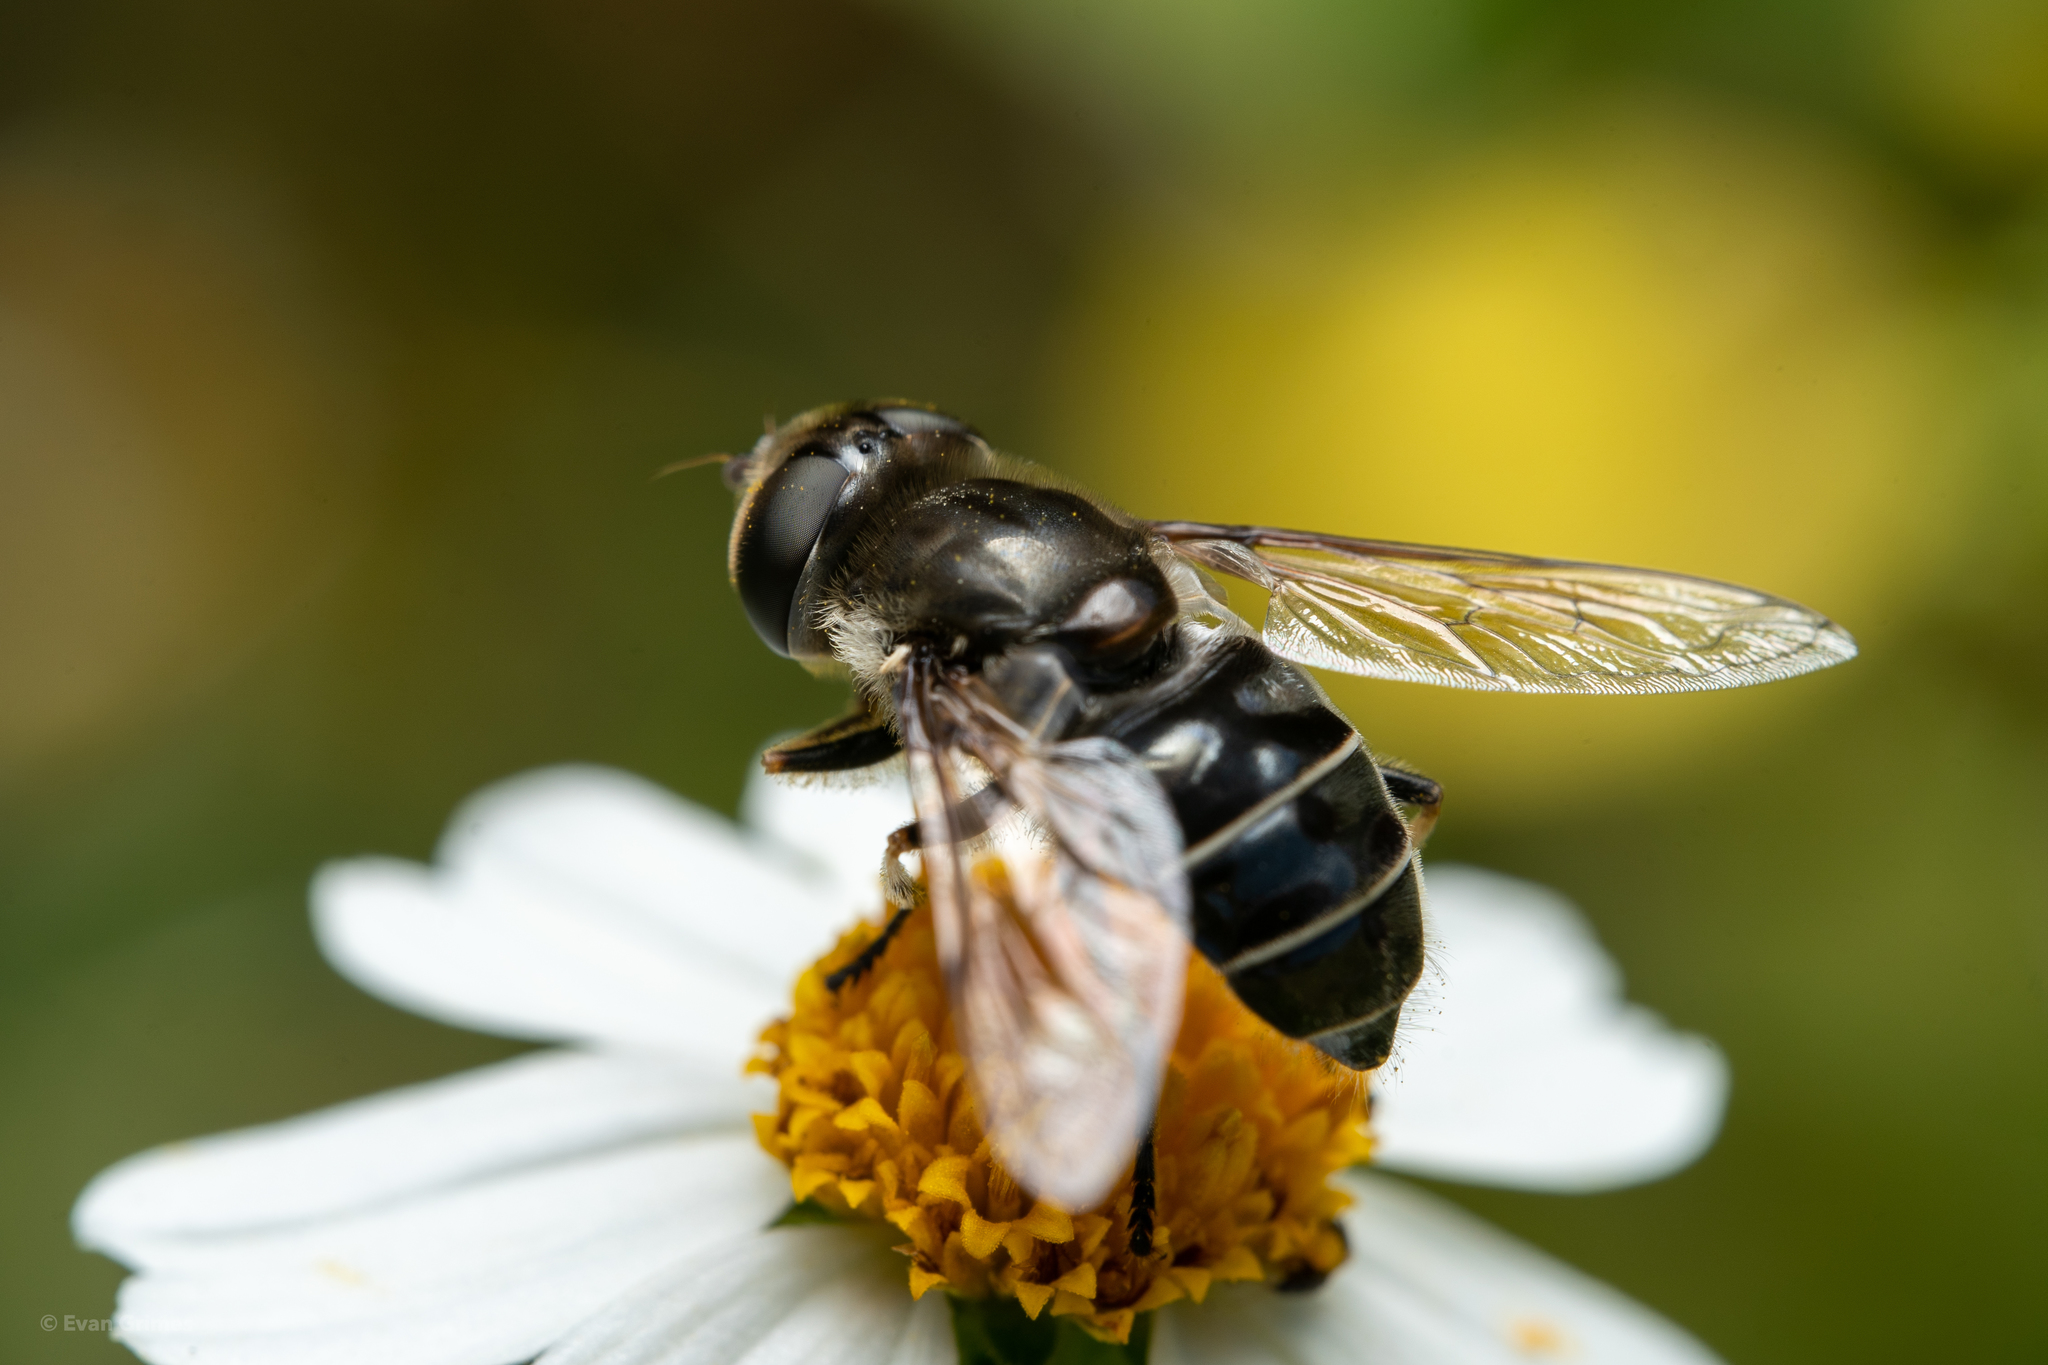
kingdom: Animalia
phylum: Arthropoda
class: Insecta
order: Diptera
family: Syrphidae
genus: Eristalis
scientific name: Eristalis dimidiata
